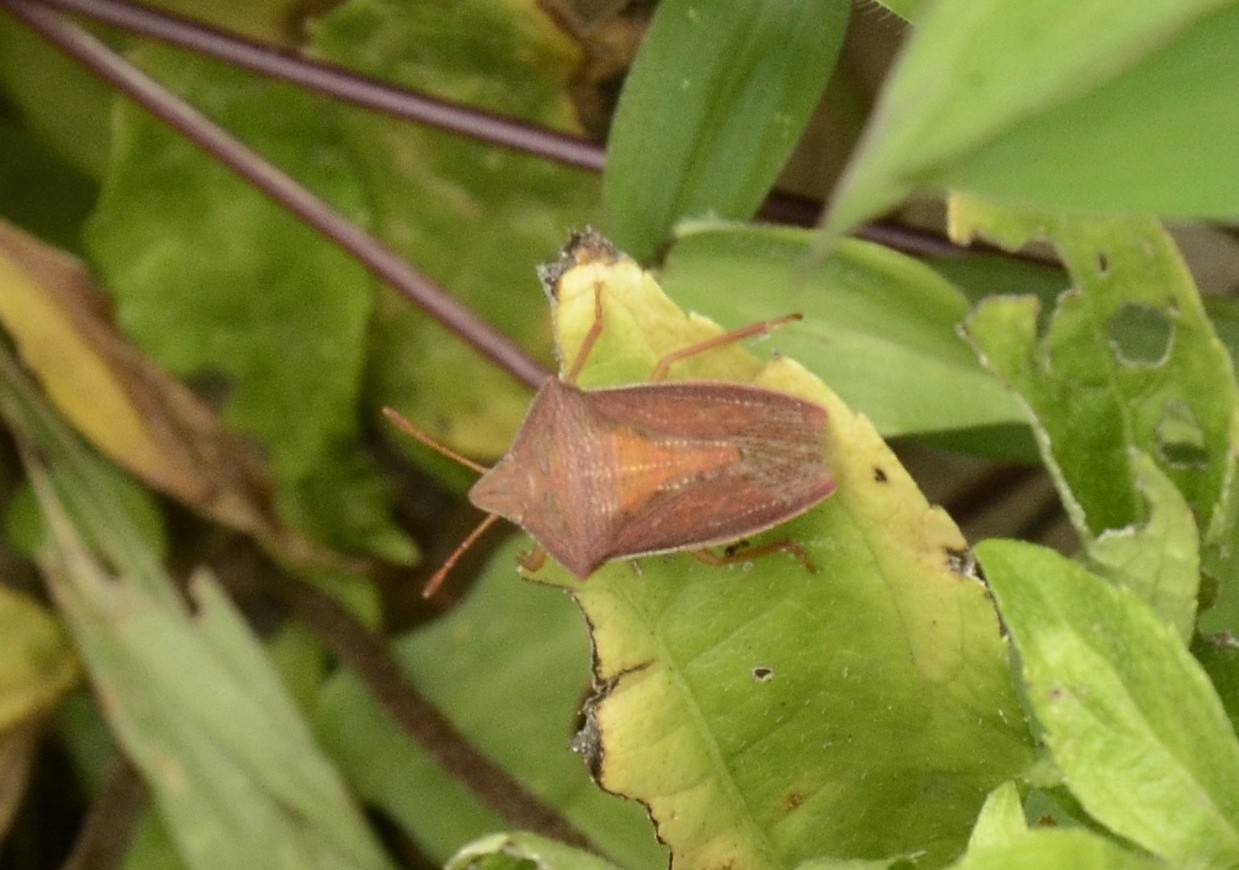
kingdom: Animalia
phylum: Arthropoda
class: Insecta
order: Hemiptera
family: Pentatomidae
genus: Gonopsis
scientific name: Gonopsis affinis
